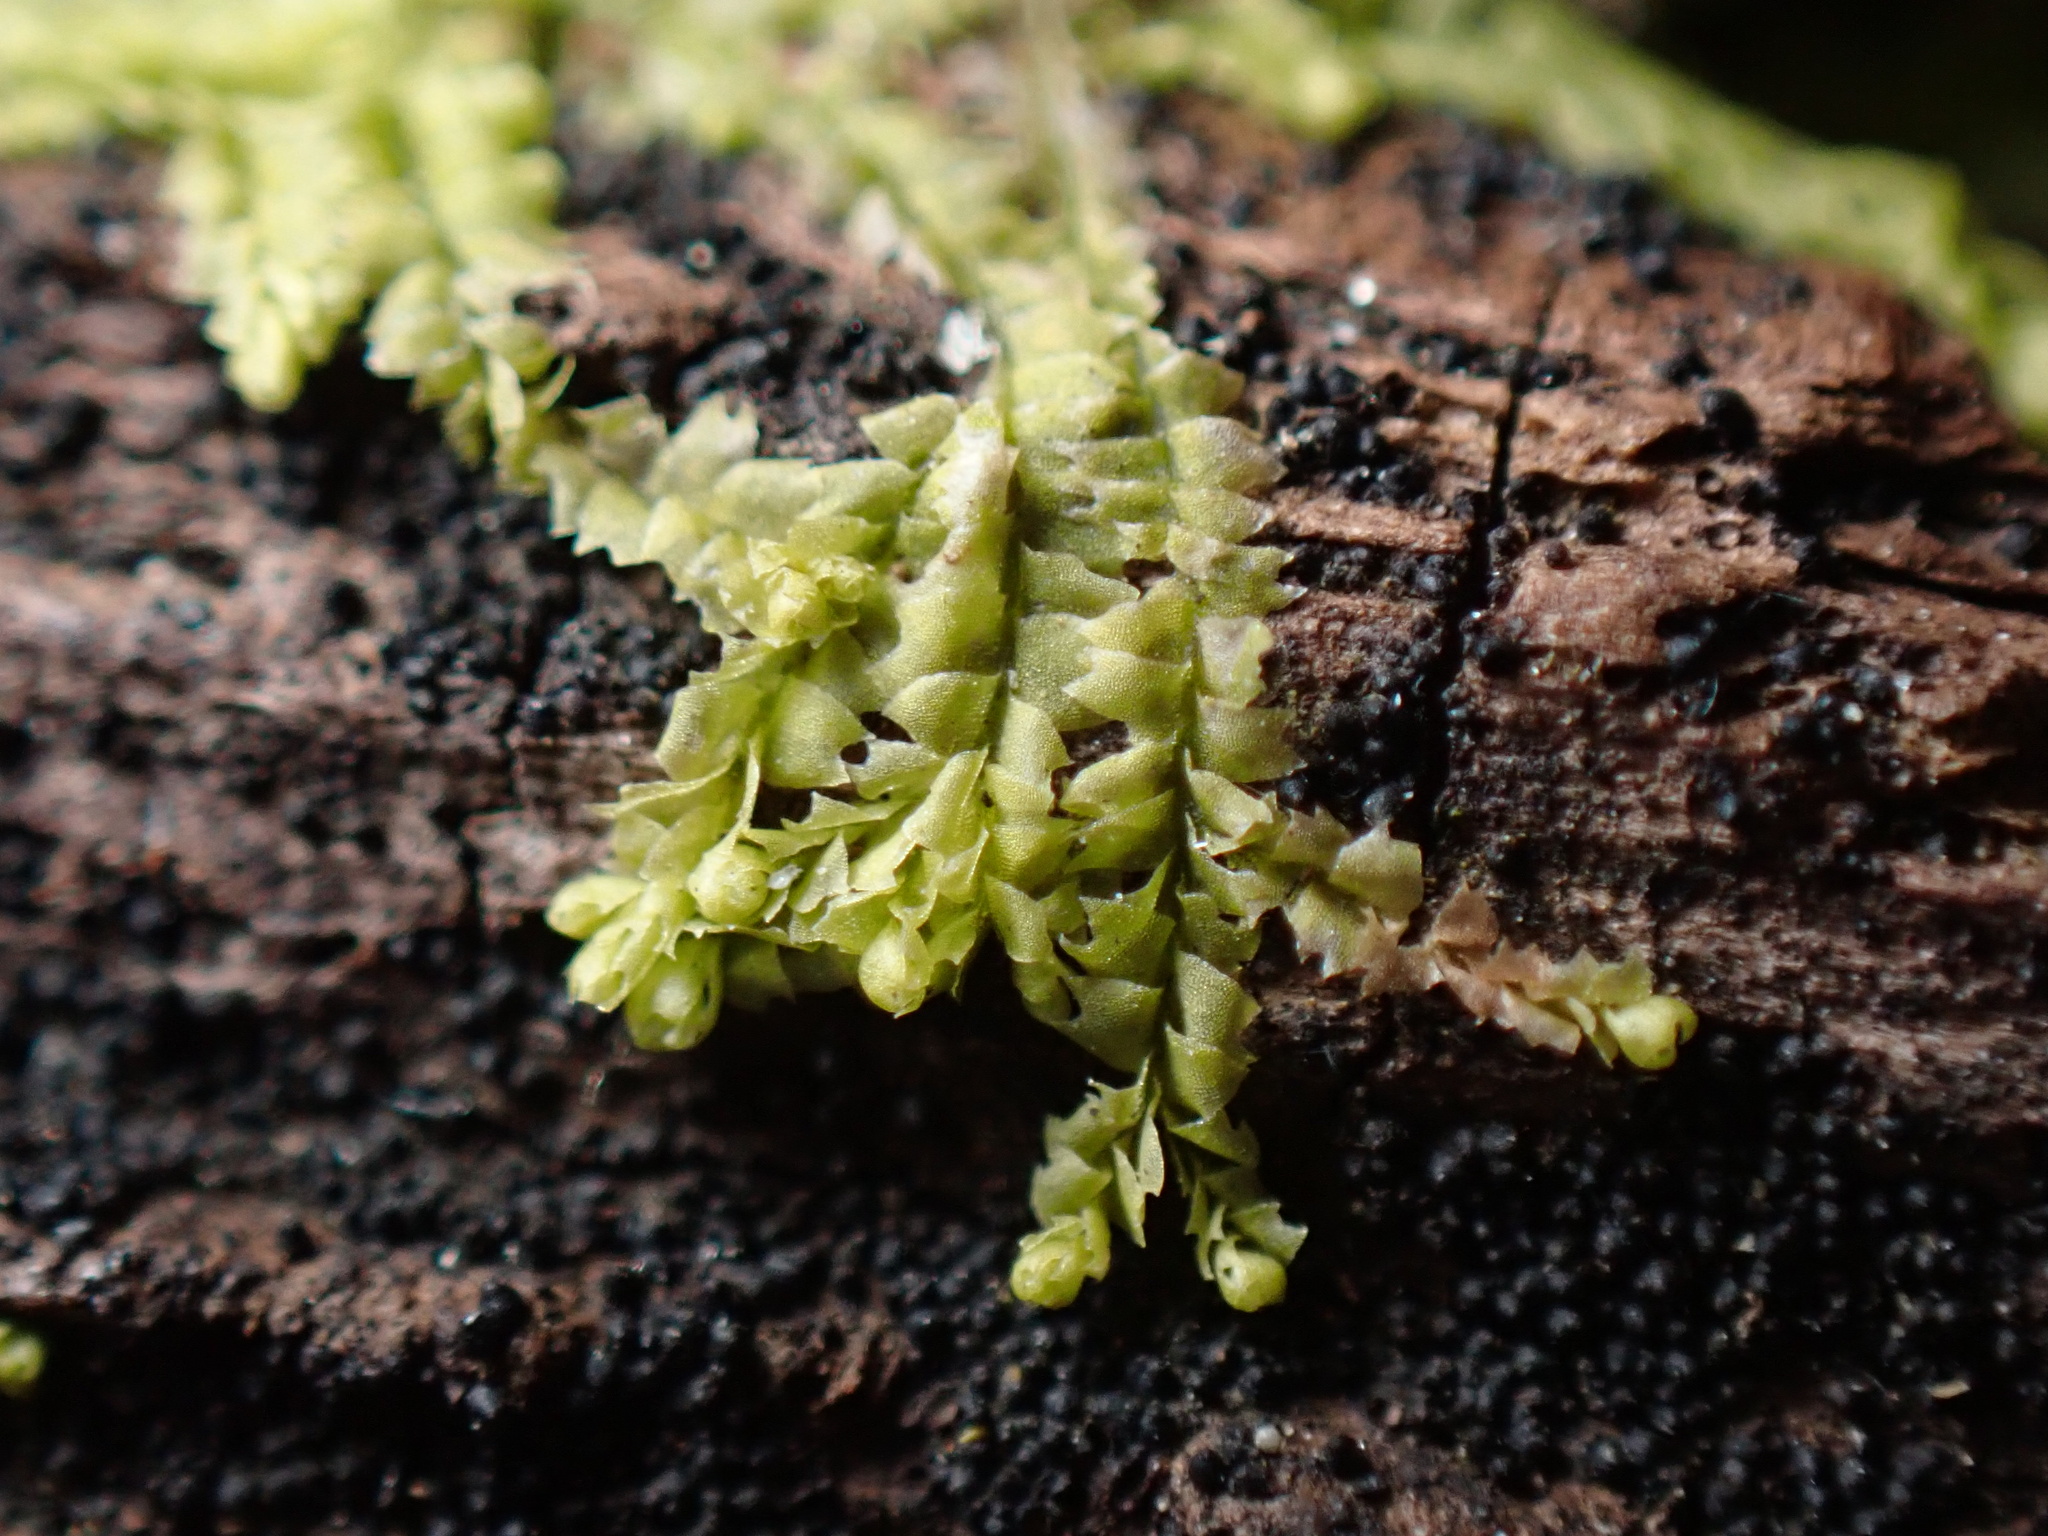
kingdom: Plantae
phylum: Marchantiophyta
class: Jungermanniopsida
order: Jungermanniales
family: Lophocoleaceae
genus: Lophocolea
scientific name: Lophocolea bidentata
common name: Bifid crestwort
